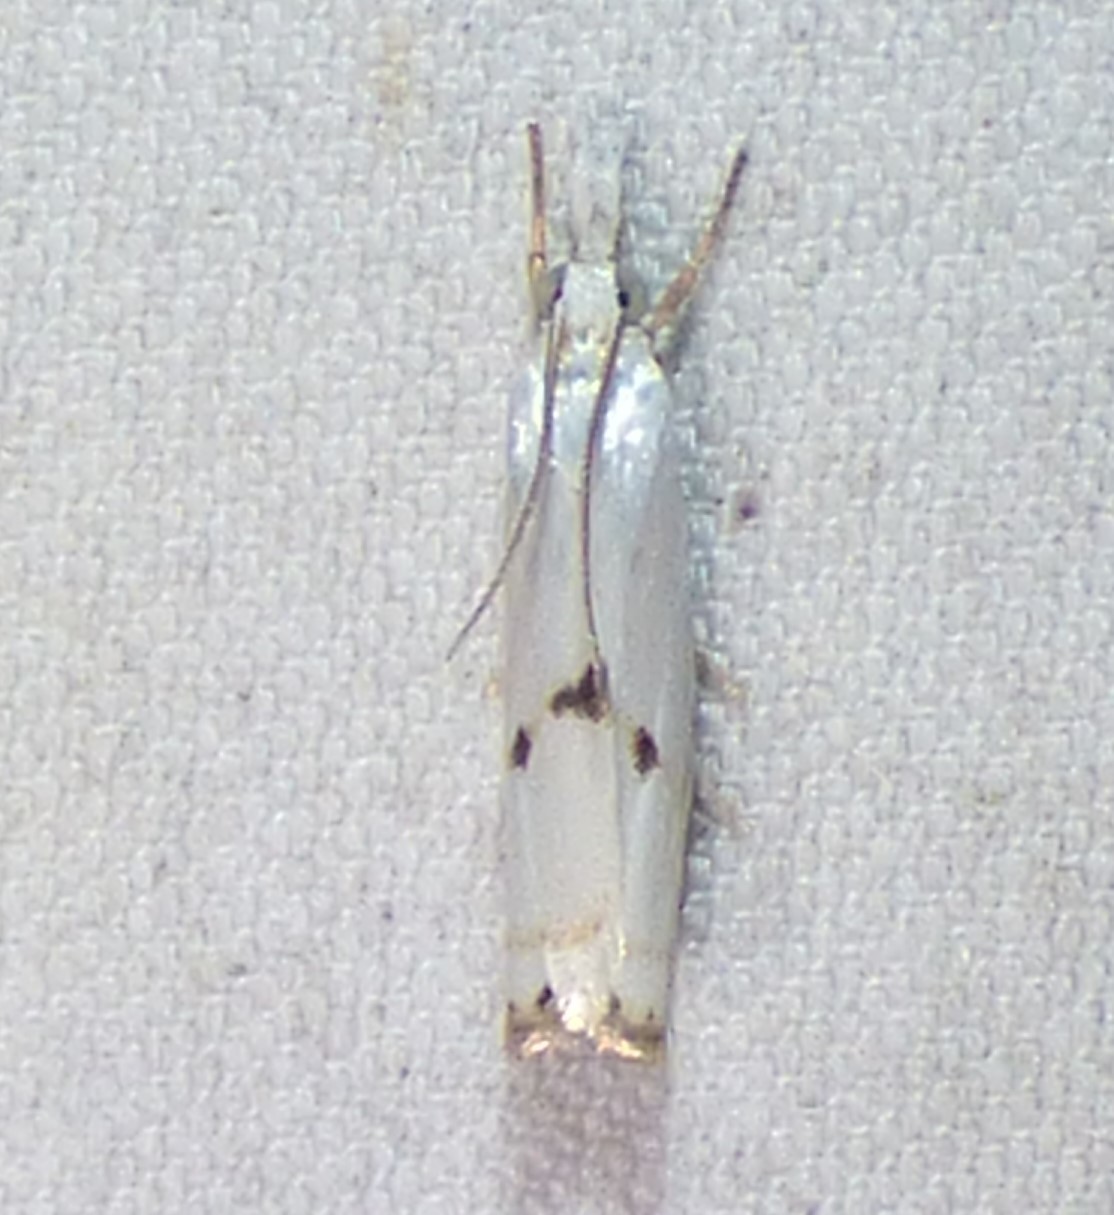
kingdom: Animalia
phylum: Arthropoda
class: Insecta
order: Lepidoptera
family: Crambidae
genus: Microcrambus
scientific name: Microcrambus biguttellus
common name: Gold-stripe grass-veneer moth
